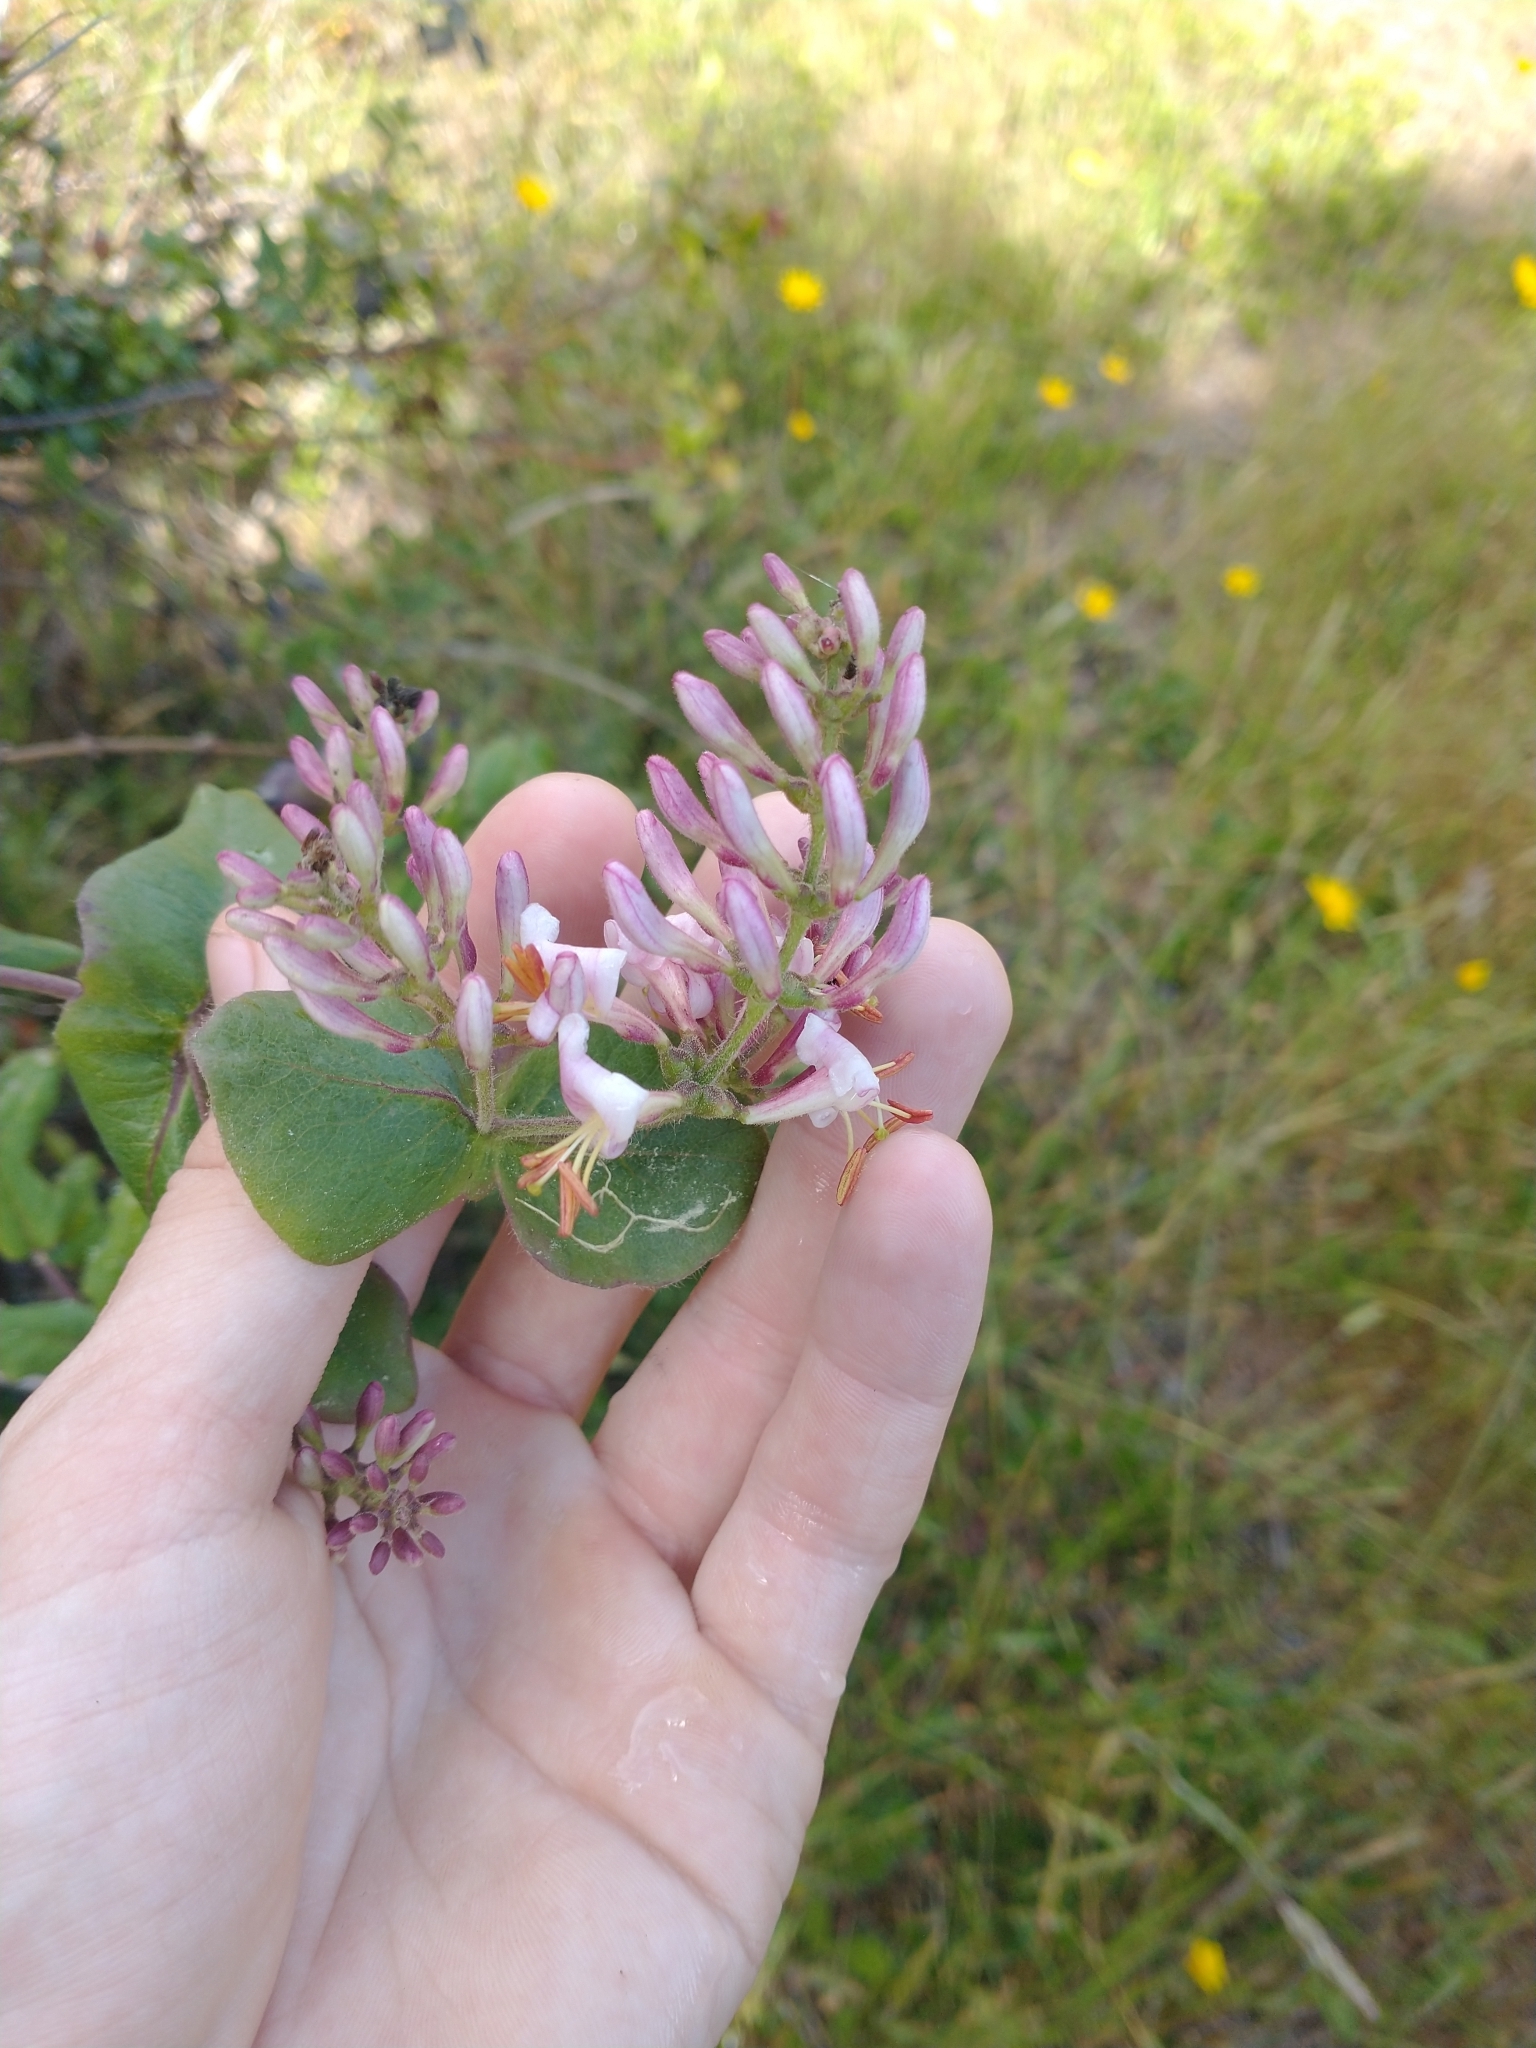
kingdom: Plantae
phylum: Tracheophyta
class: Magnoliopsida
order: Dipsacales
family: Caprifoliaceae
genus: Lonicera
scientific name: Lonicera hispidula
